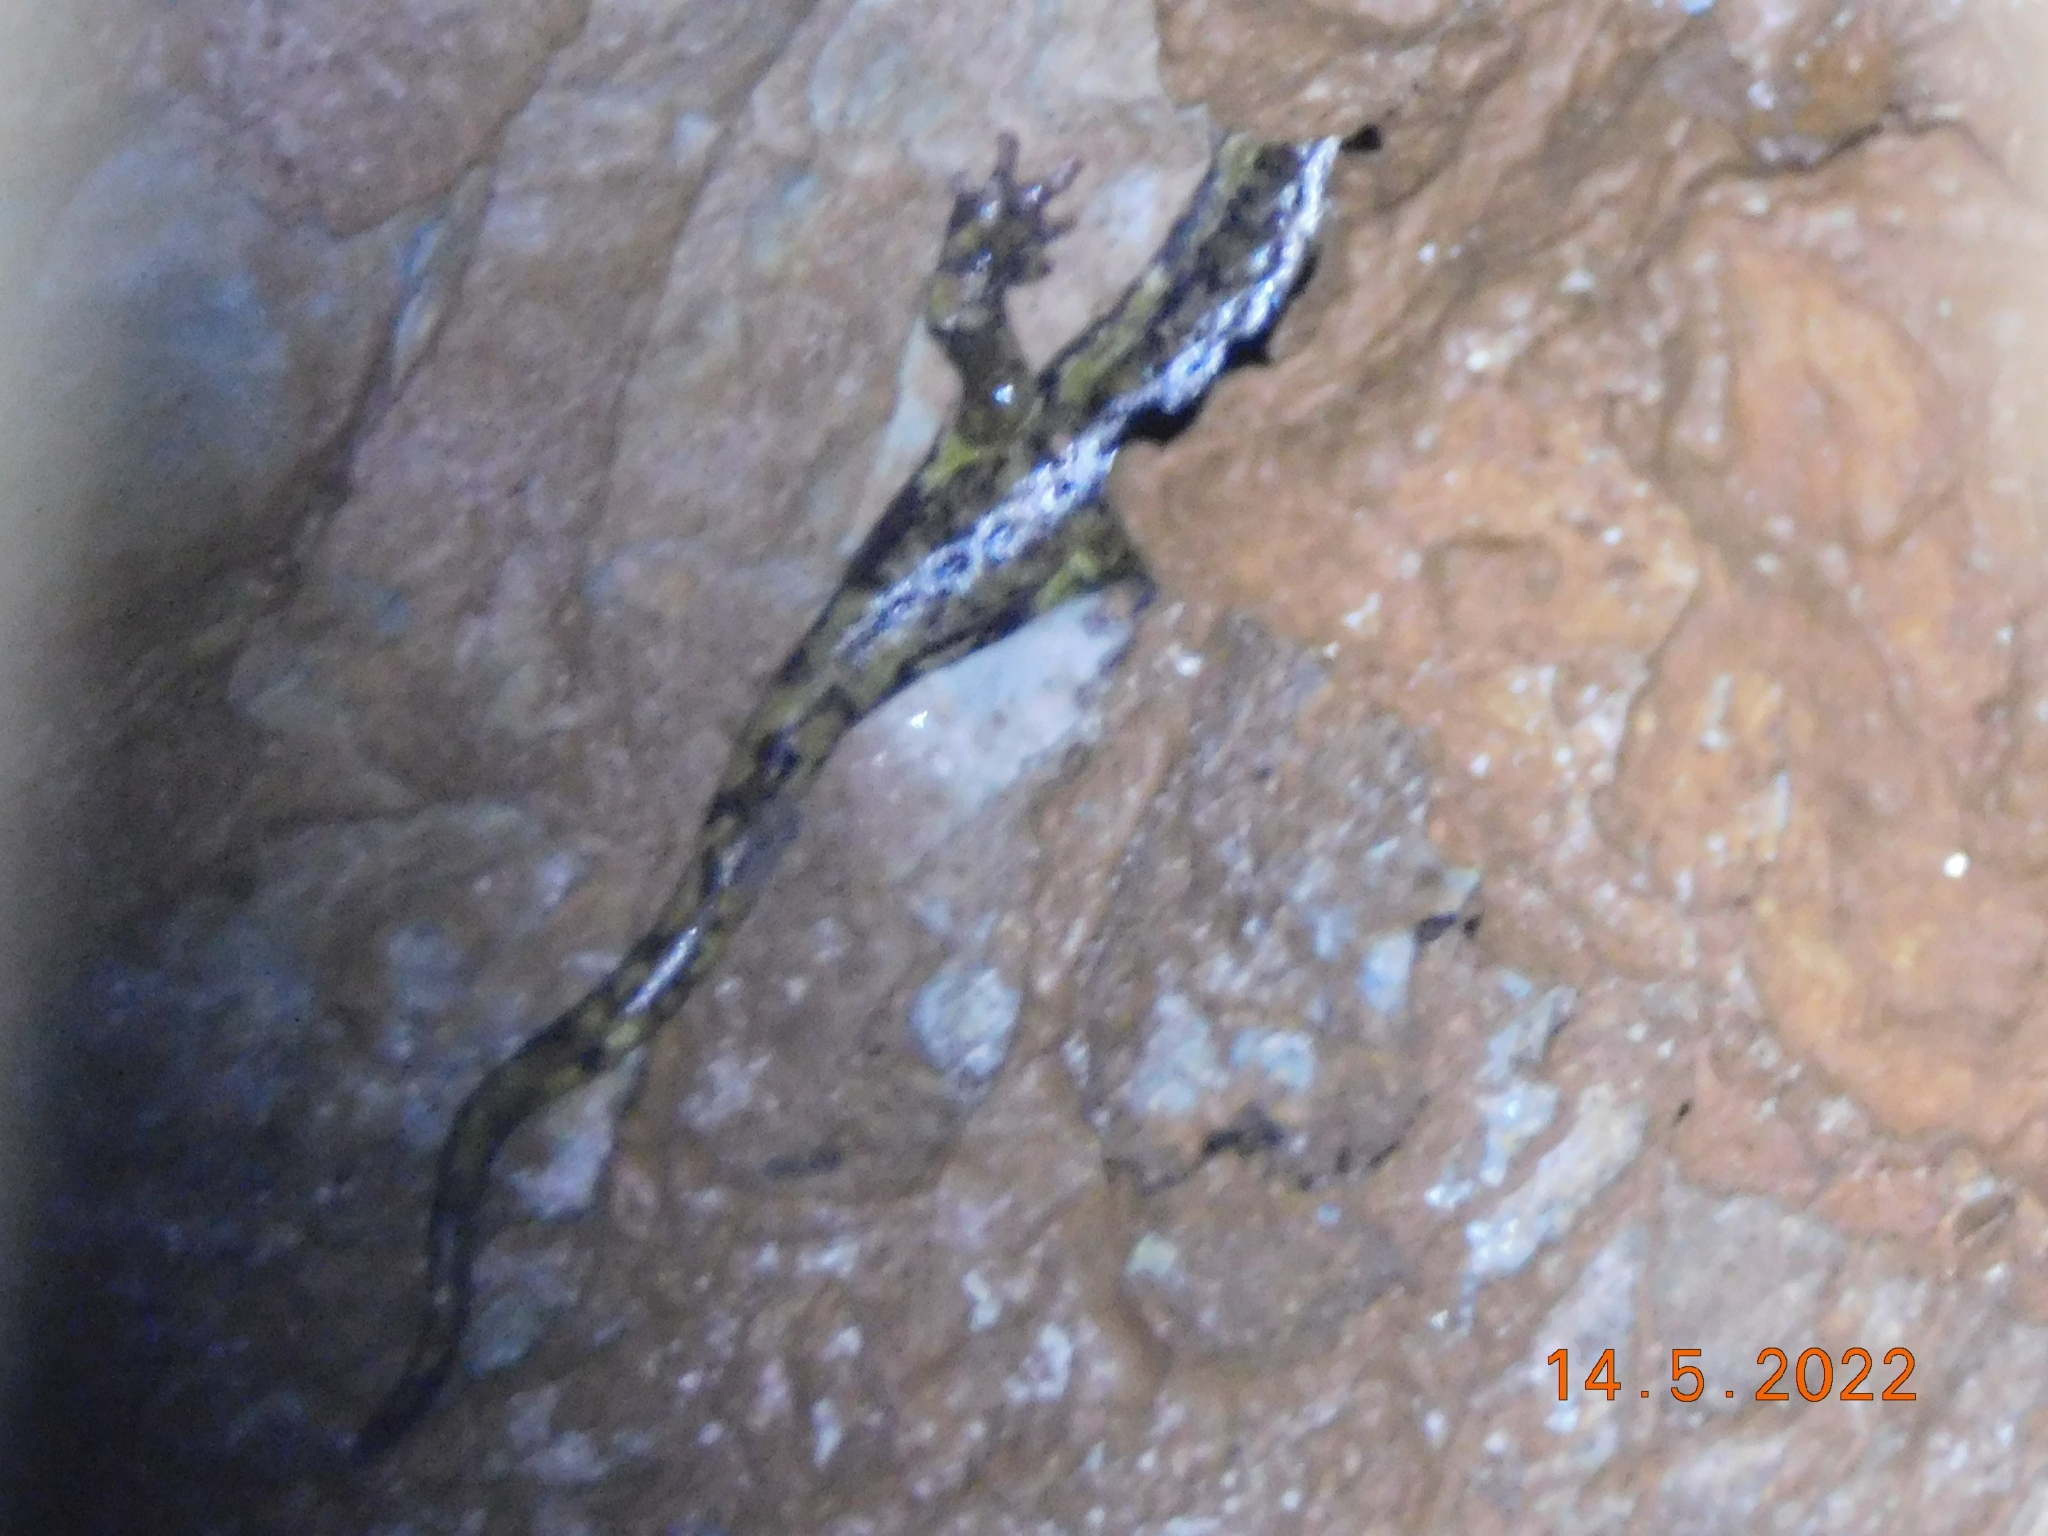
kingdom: Animalia
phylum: Chordata
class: Amphibia
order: Caudata
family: Plethodontidae
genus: Speleomantes
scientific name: Speleomantes ambrosii
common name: Ambrosi's cave salamander
